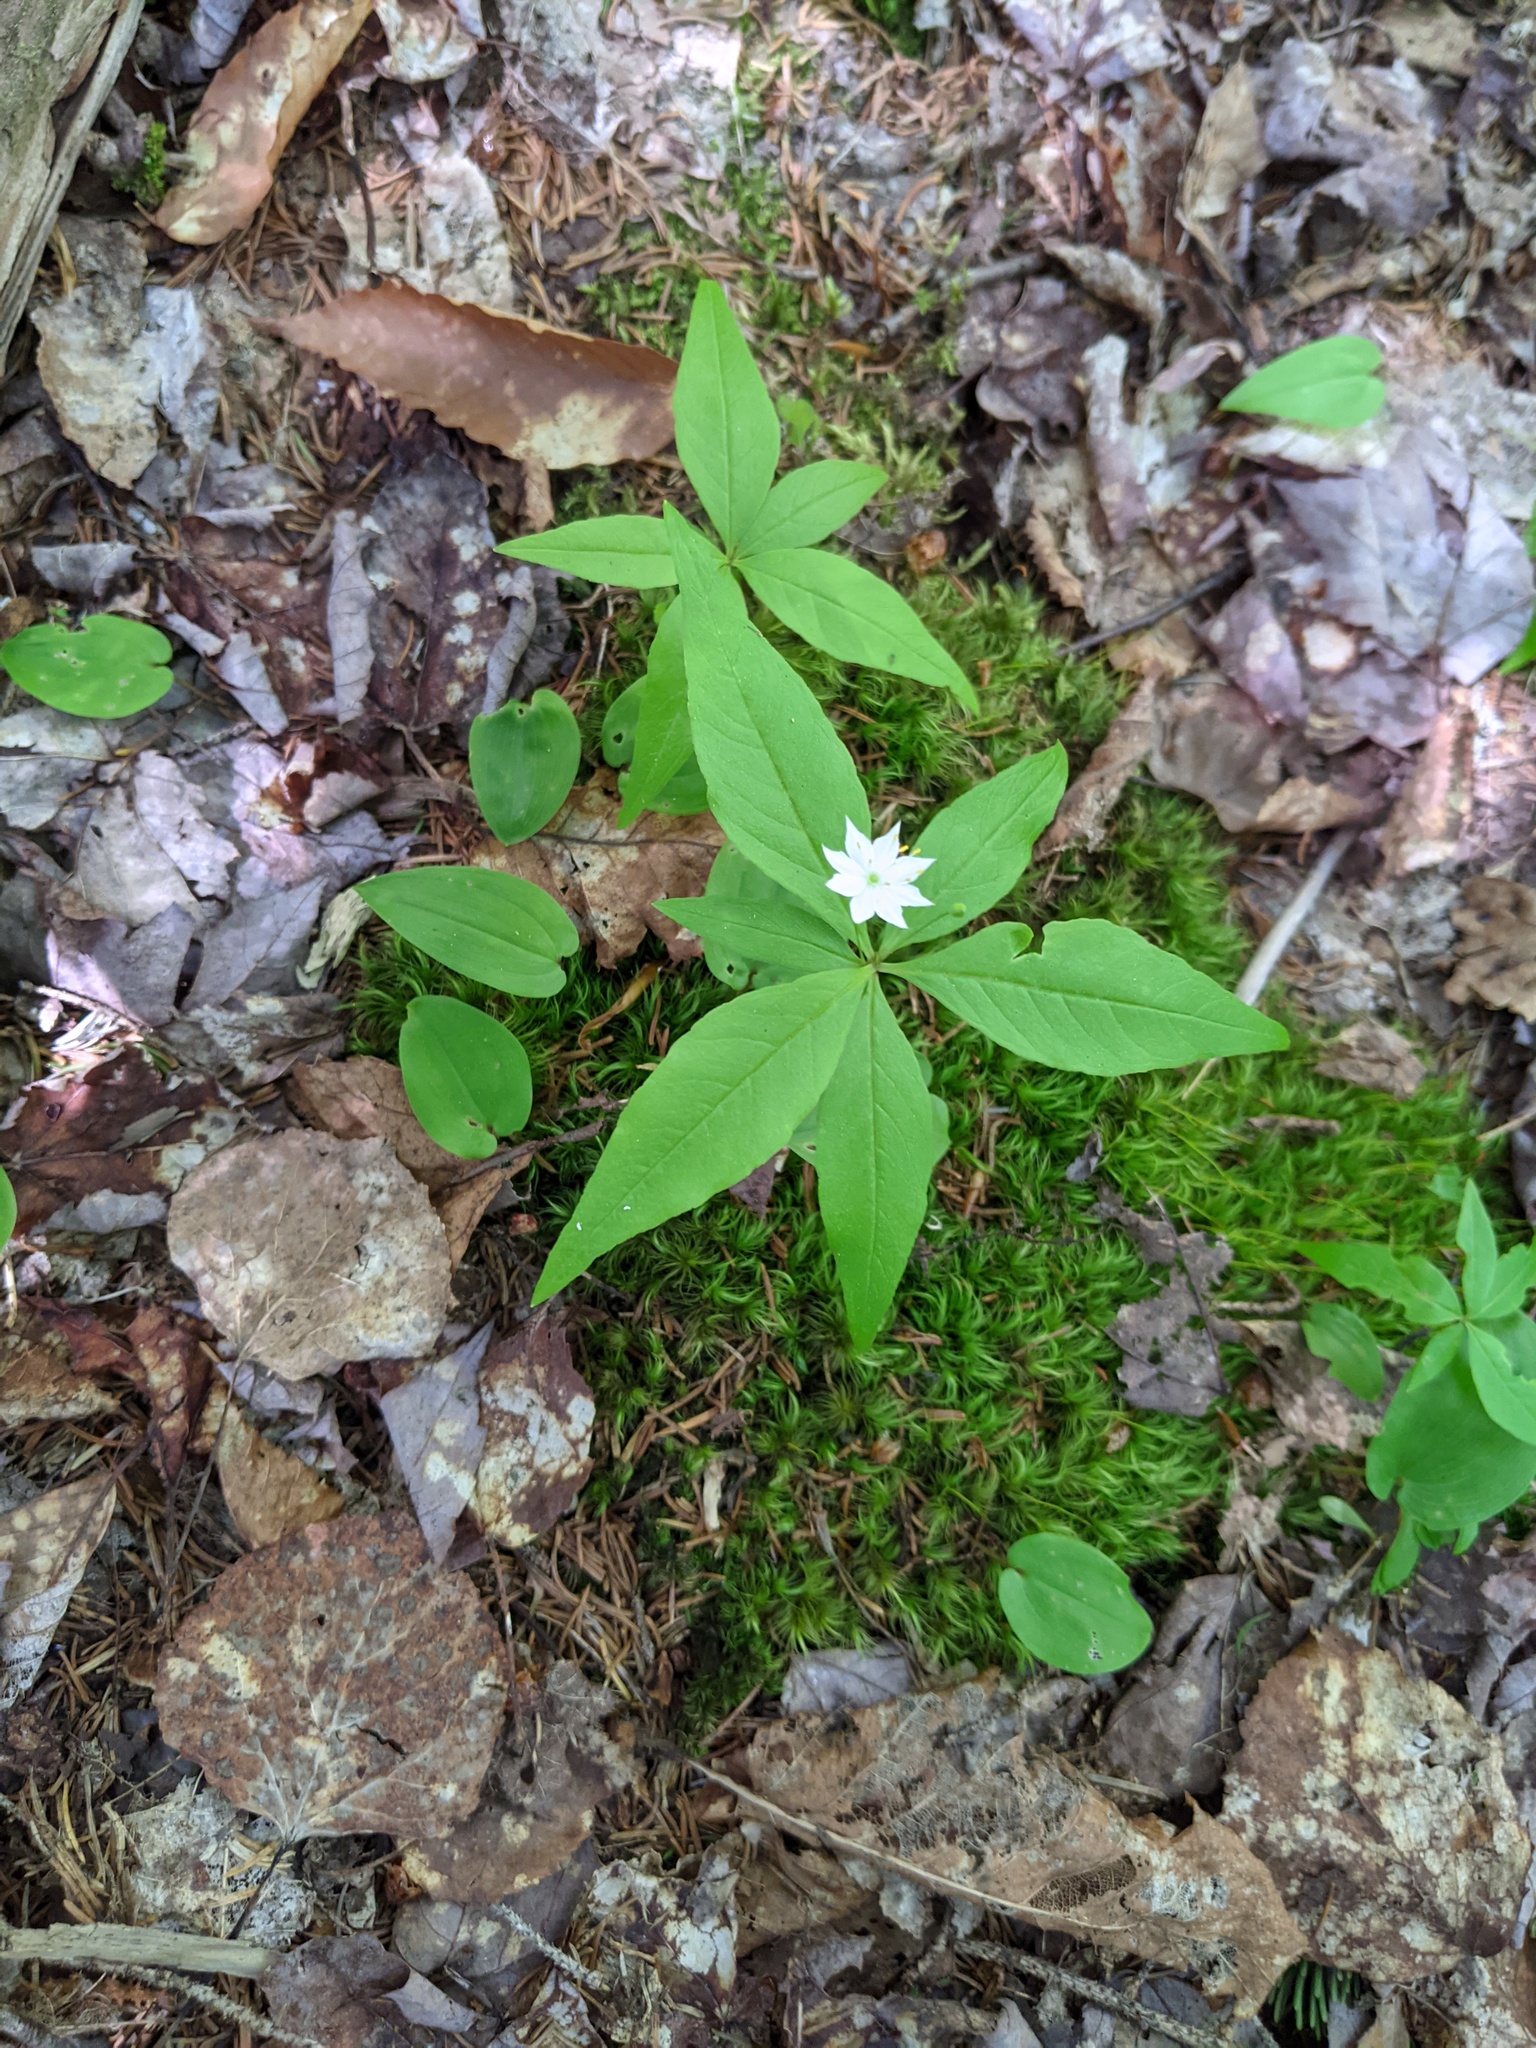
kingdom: Plantae
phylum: Tracheophyta
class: Magnoliopsida
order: Ericales
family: Primulaceae
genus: Lysimachia
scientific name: Lysimachia borealis
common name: American starflower
